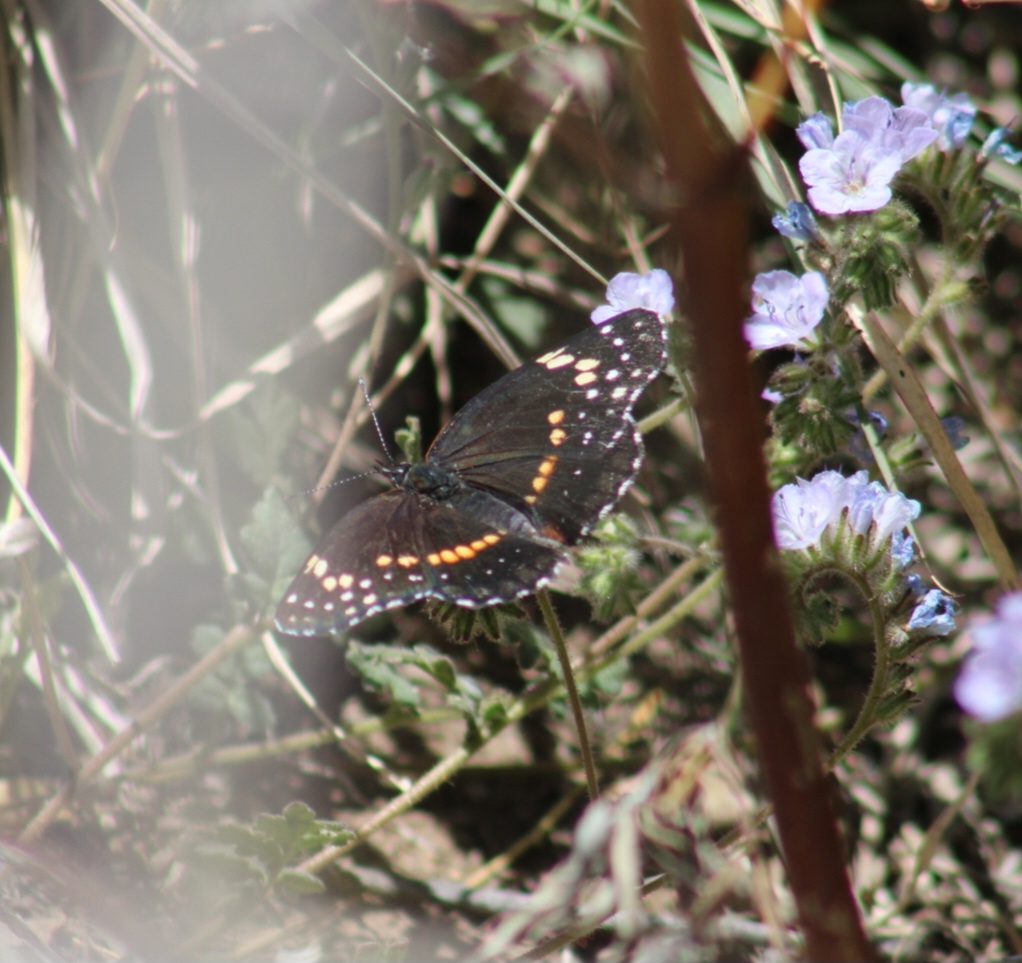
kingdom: Animalia
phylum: Arthropoda
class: Insecta
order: Lepidoptera
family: Nymphalidae
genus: Chlosyne
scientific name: Chlosyne lacinia
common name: Bordered patch
